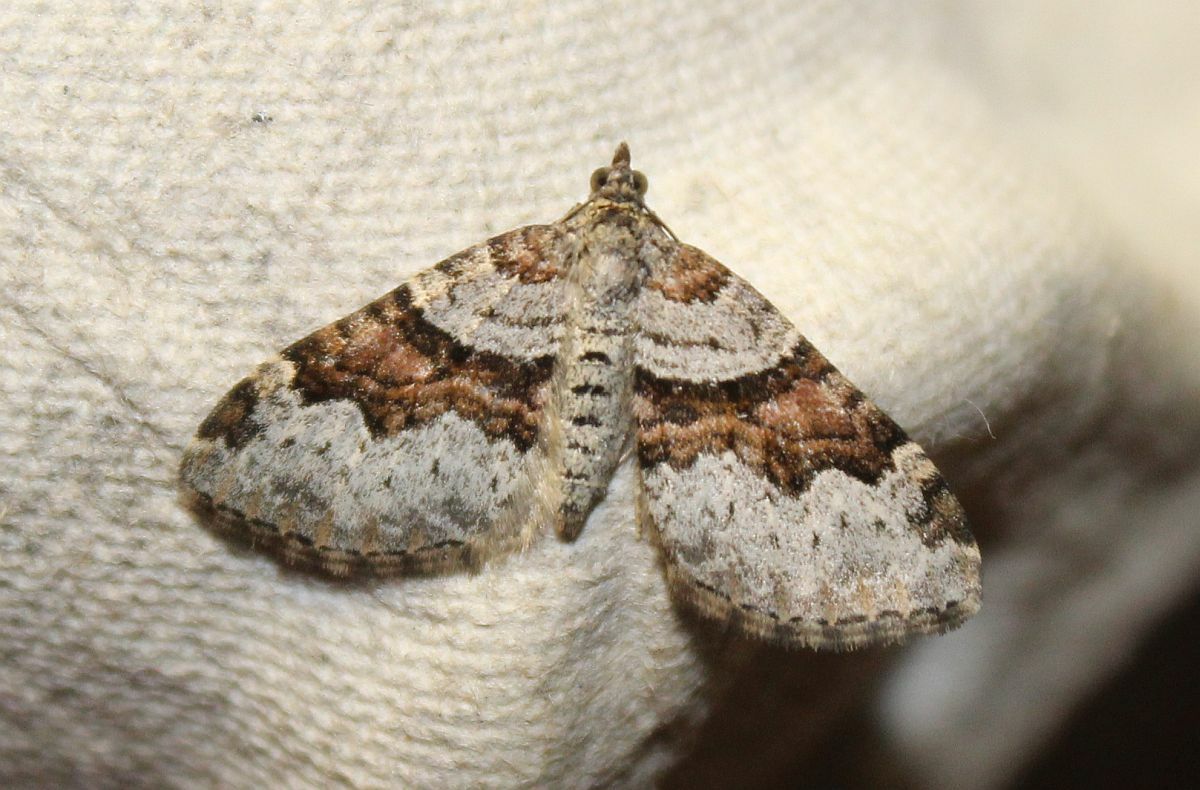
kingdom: Animalia
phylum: Arthropoda
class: Insecta
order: Lepidoptera
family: Geometridae
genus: Xanthorhoe
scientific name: Xanthorhoe designata
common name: Flame carpet
